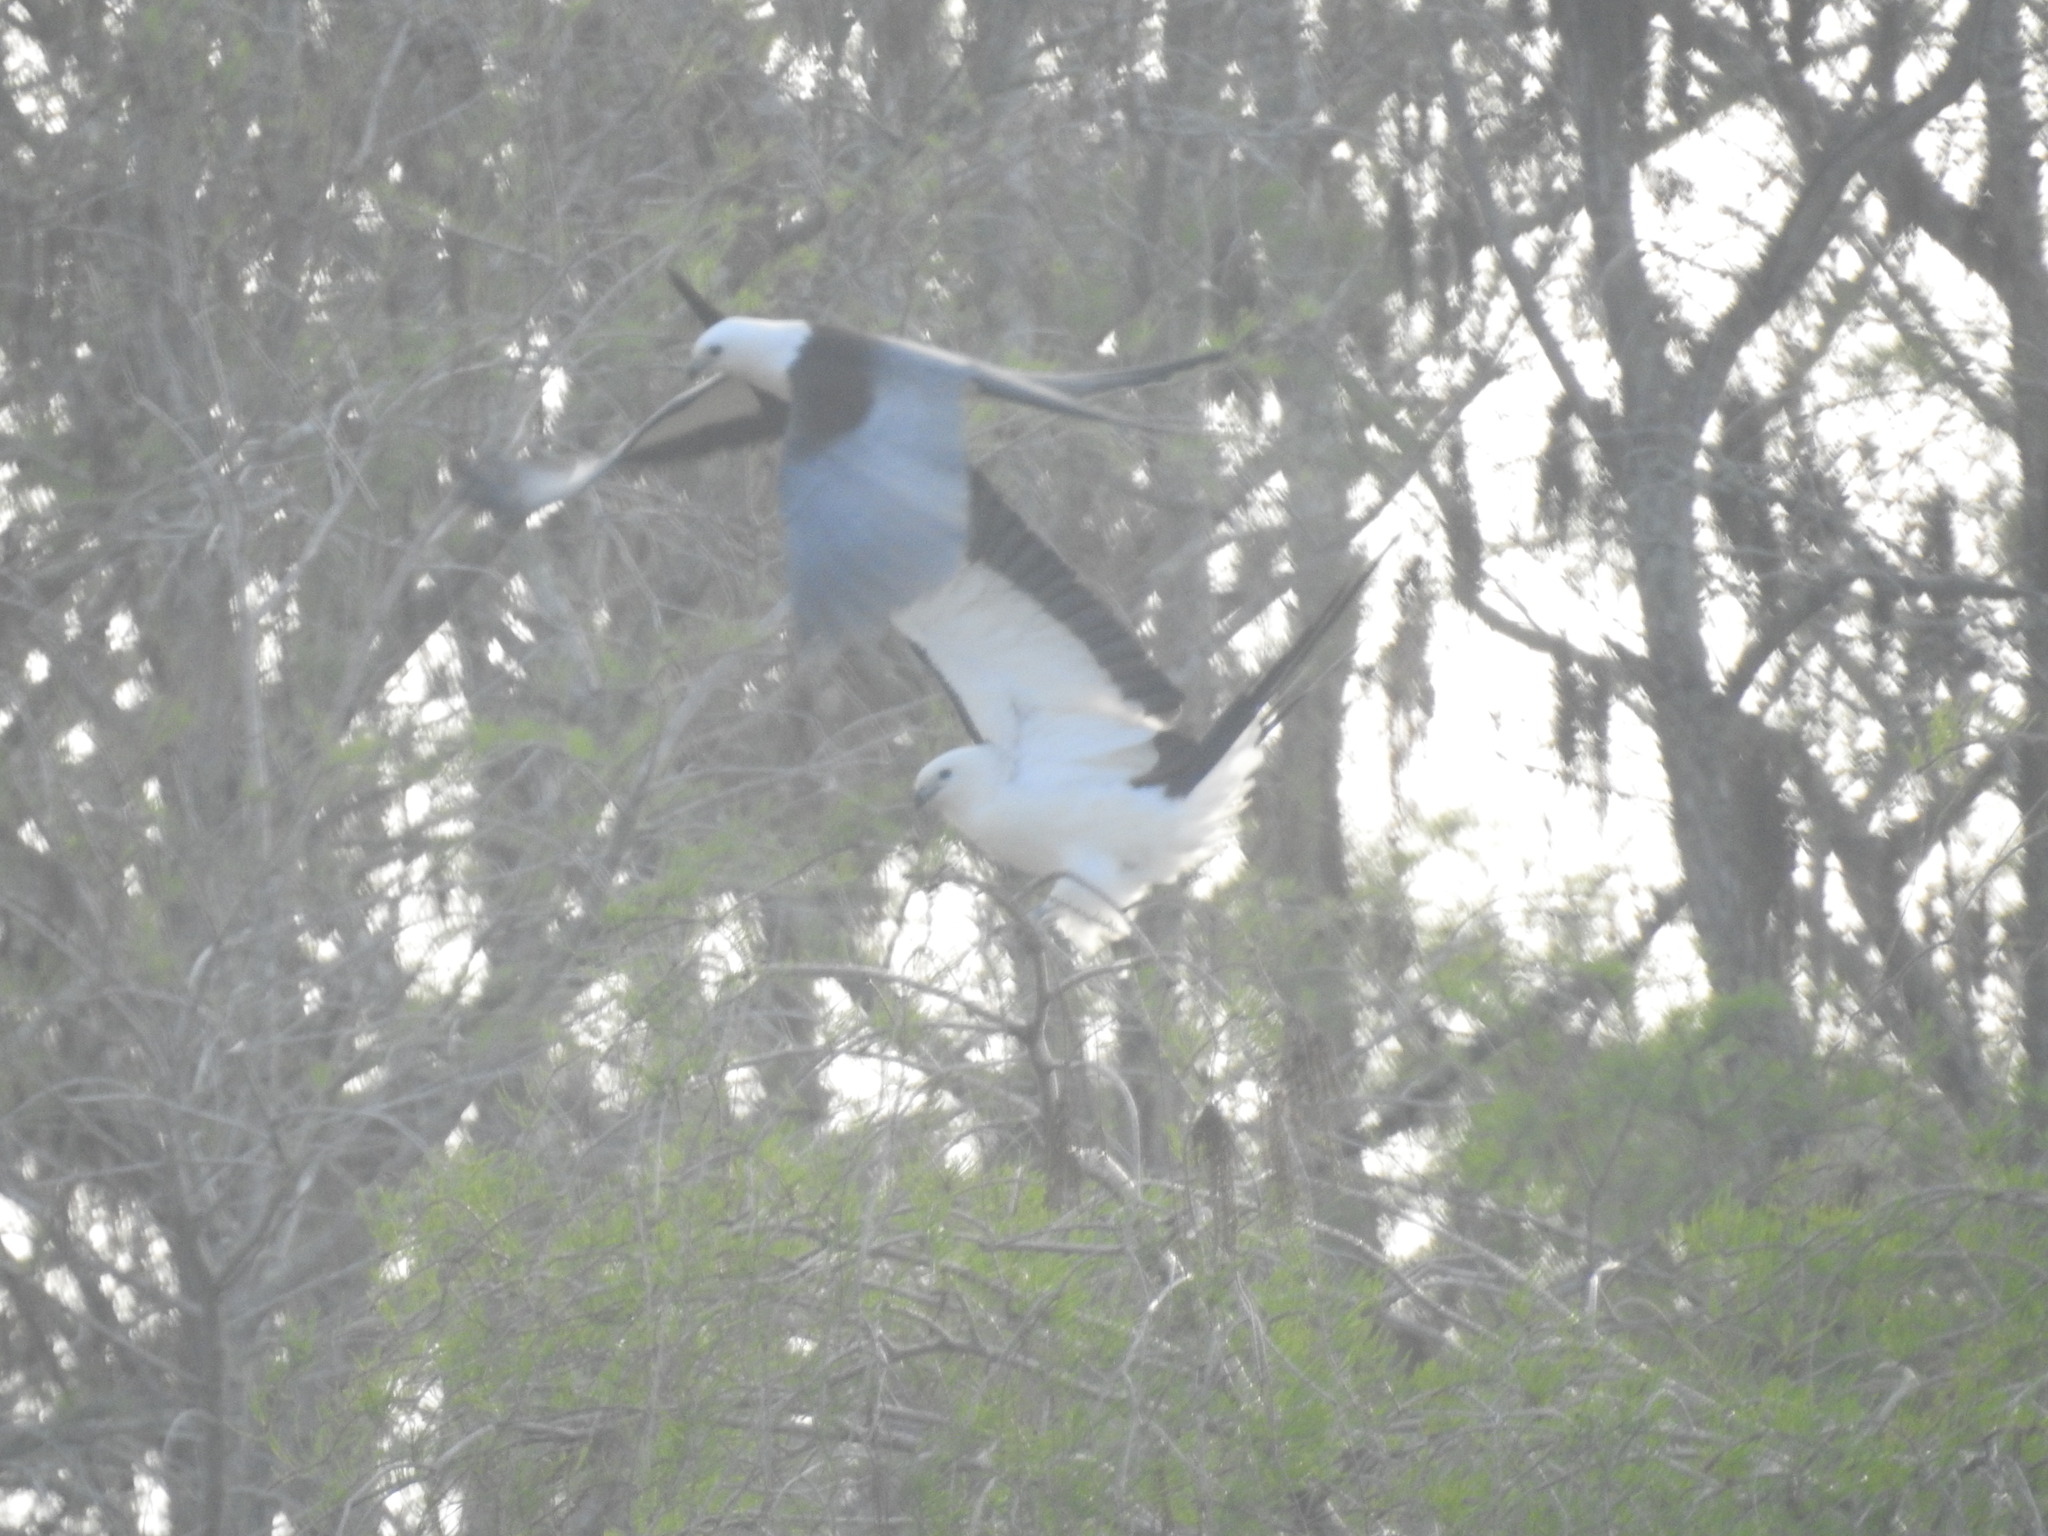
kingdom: Animalia
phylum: Chordata
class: Aves
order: Accipitriformes
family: Accipitridae
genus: Elanoides
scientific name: Elanoides forficatus
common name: Swallow-tailed kite
